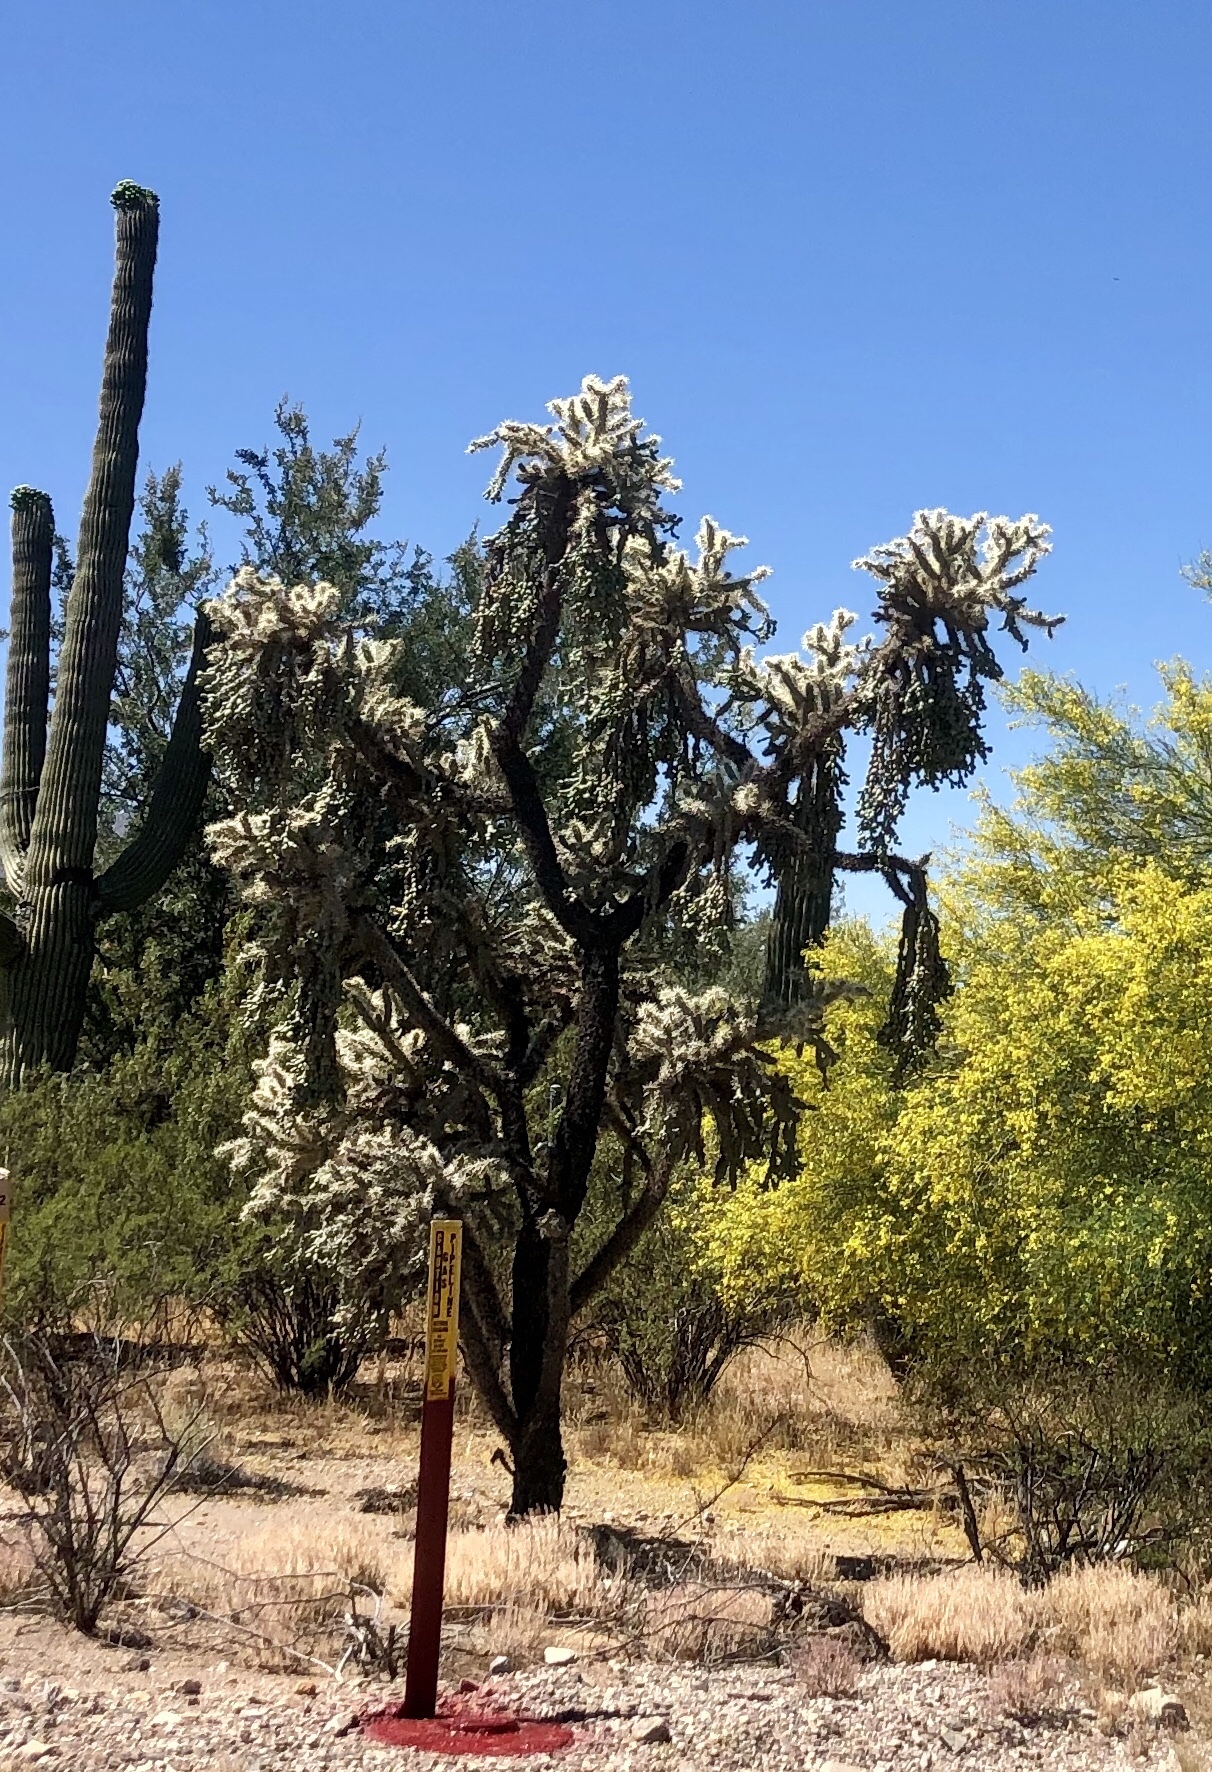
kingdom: Plantae
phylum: Tracheophyta
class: Magnoliopsida
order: Caryophyllales
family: Cactaceae
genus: Cylindropuntia
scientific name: Cylindropuntia fulgida
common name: Jumping cholla
